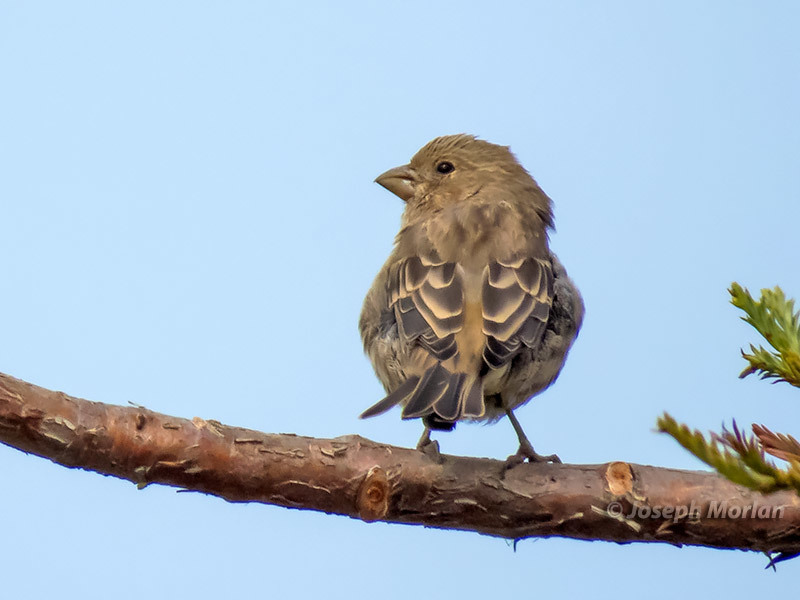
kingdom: Animalia
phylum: Chordata
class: Aves
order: Passeriformes
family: Fringillidae
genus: Haemorhous
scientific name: Haemorhous mexicanus
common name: House finch
